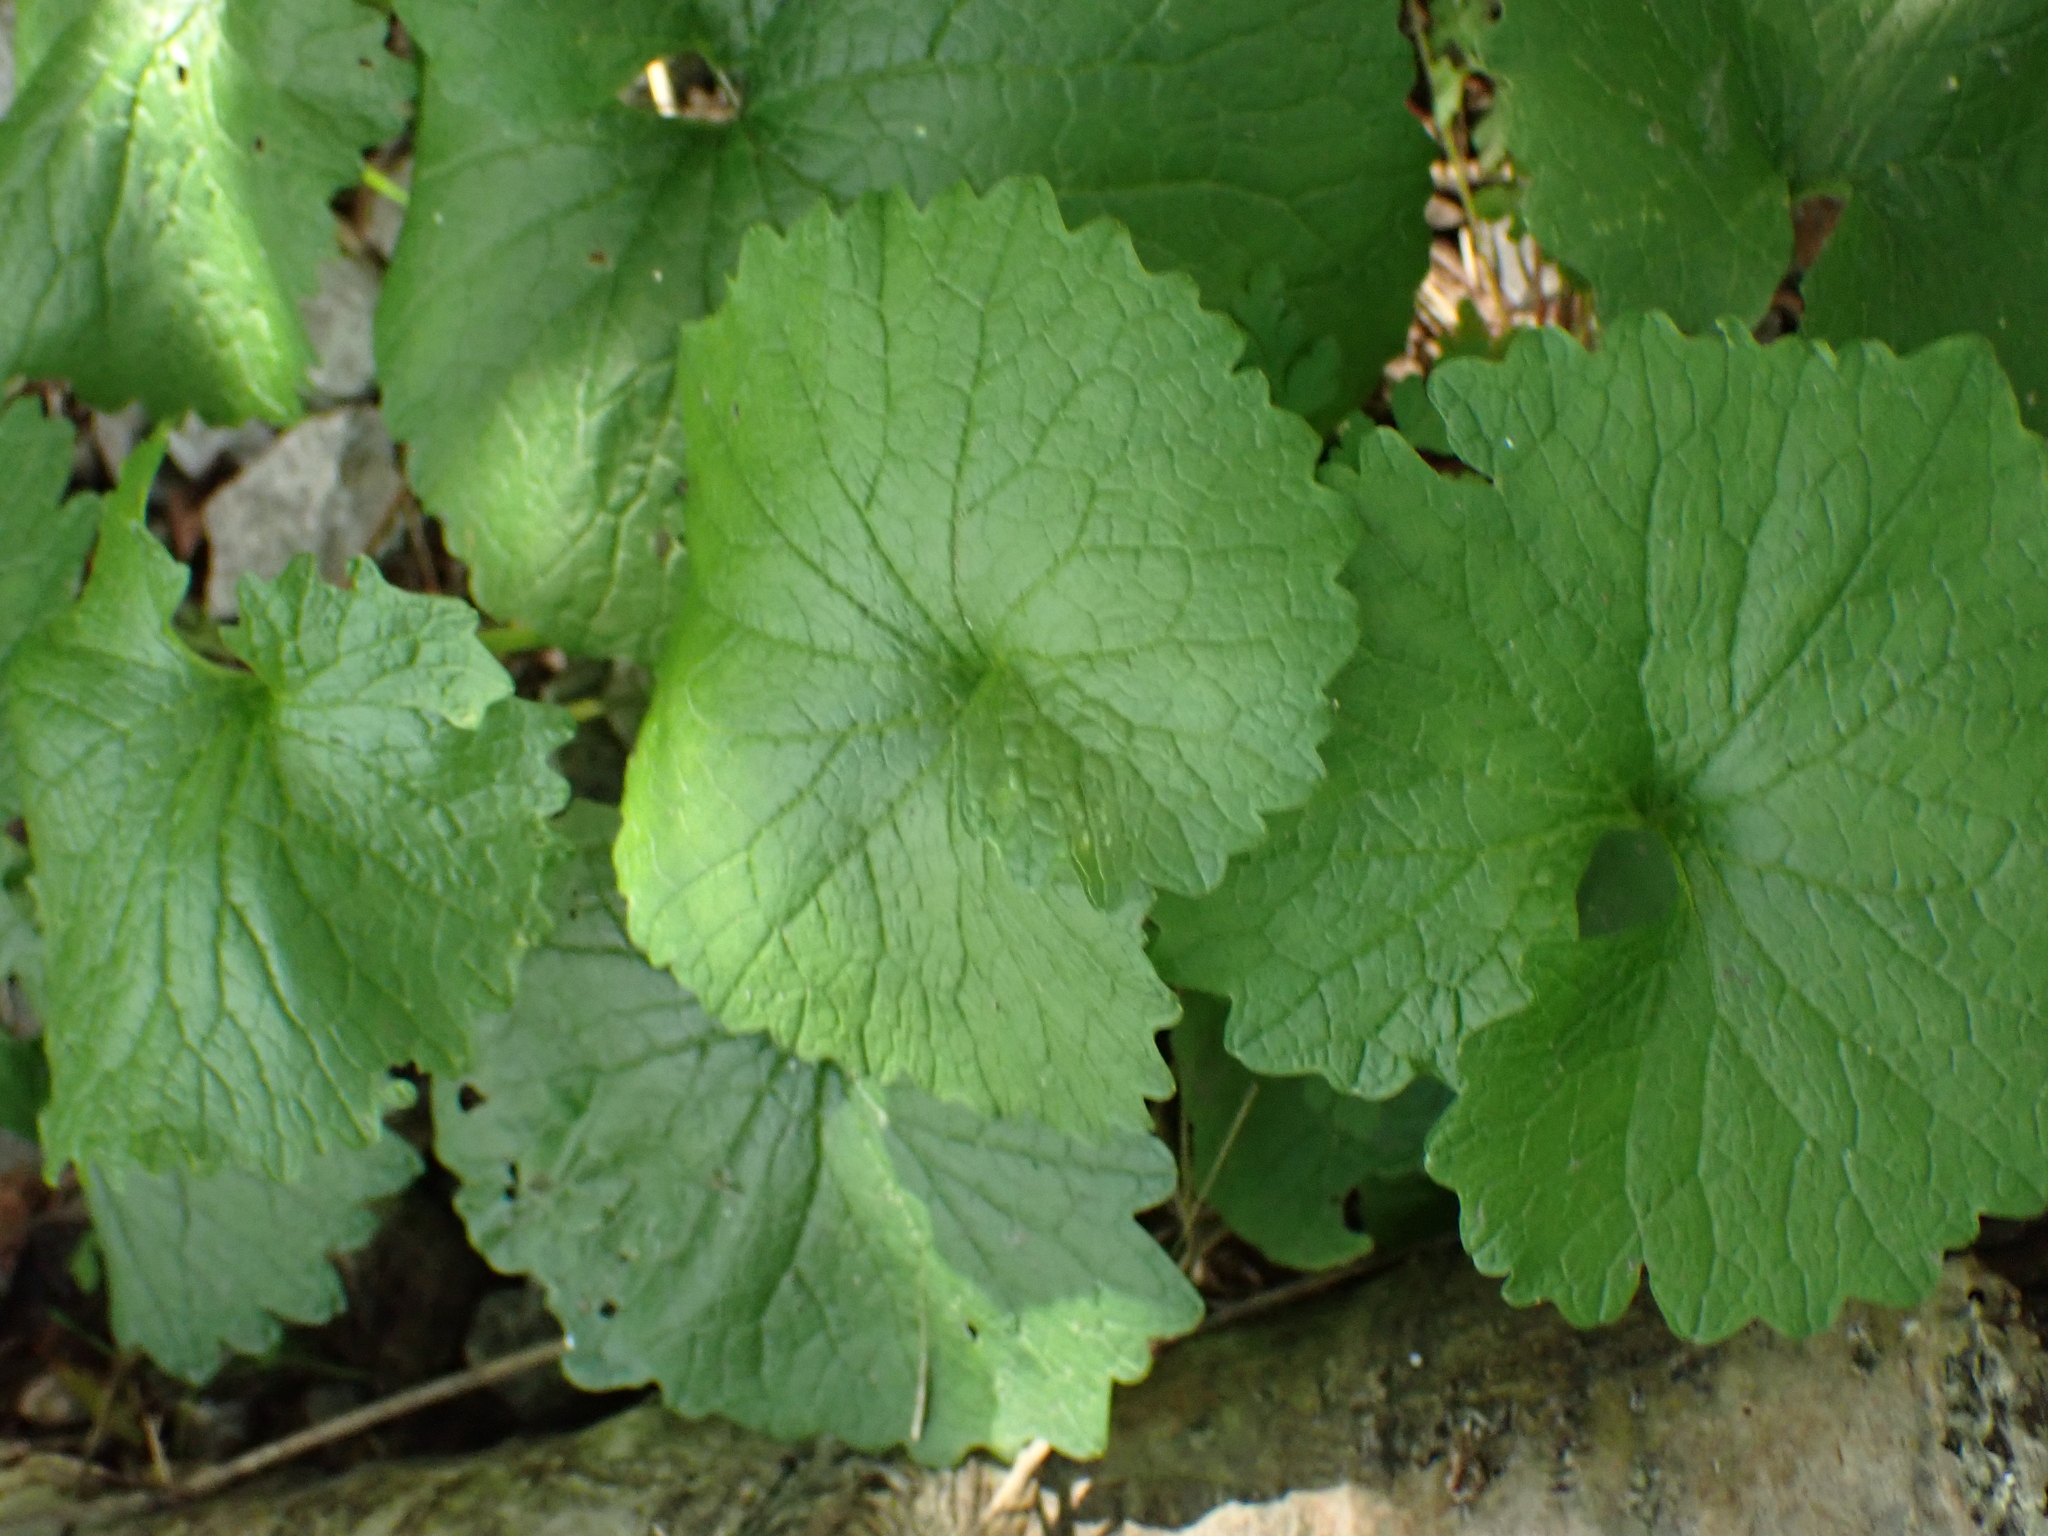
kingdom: Plantae
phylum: Tracheophyta
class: Magnoliopsida
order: Brassicales
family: Brassicaceae
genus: Alliaria
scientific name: Alliaria petiolata
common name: Garlic mustard
